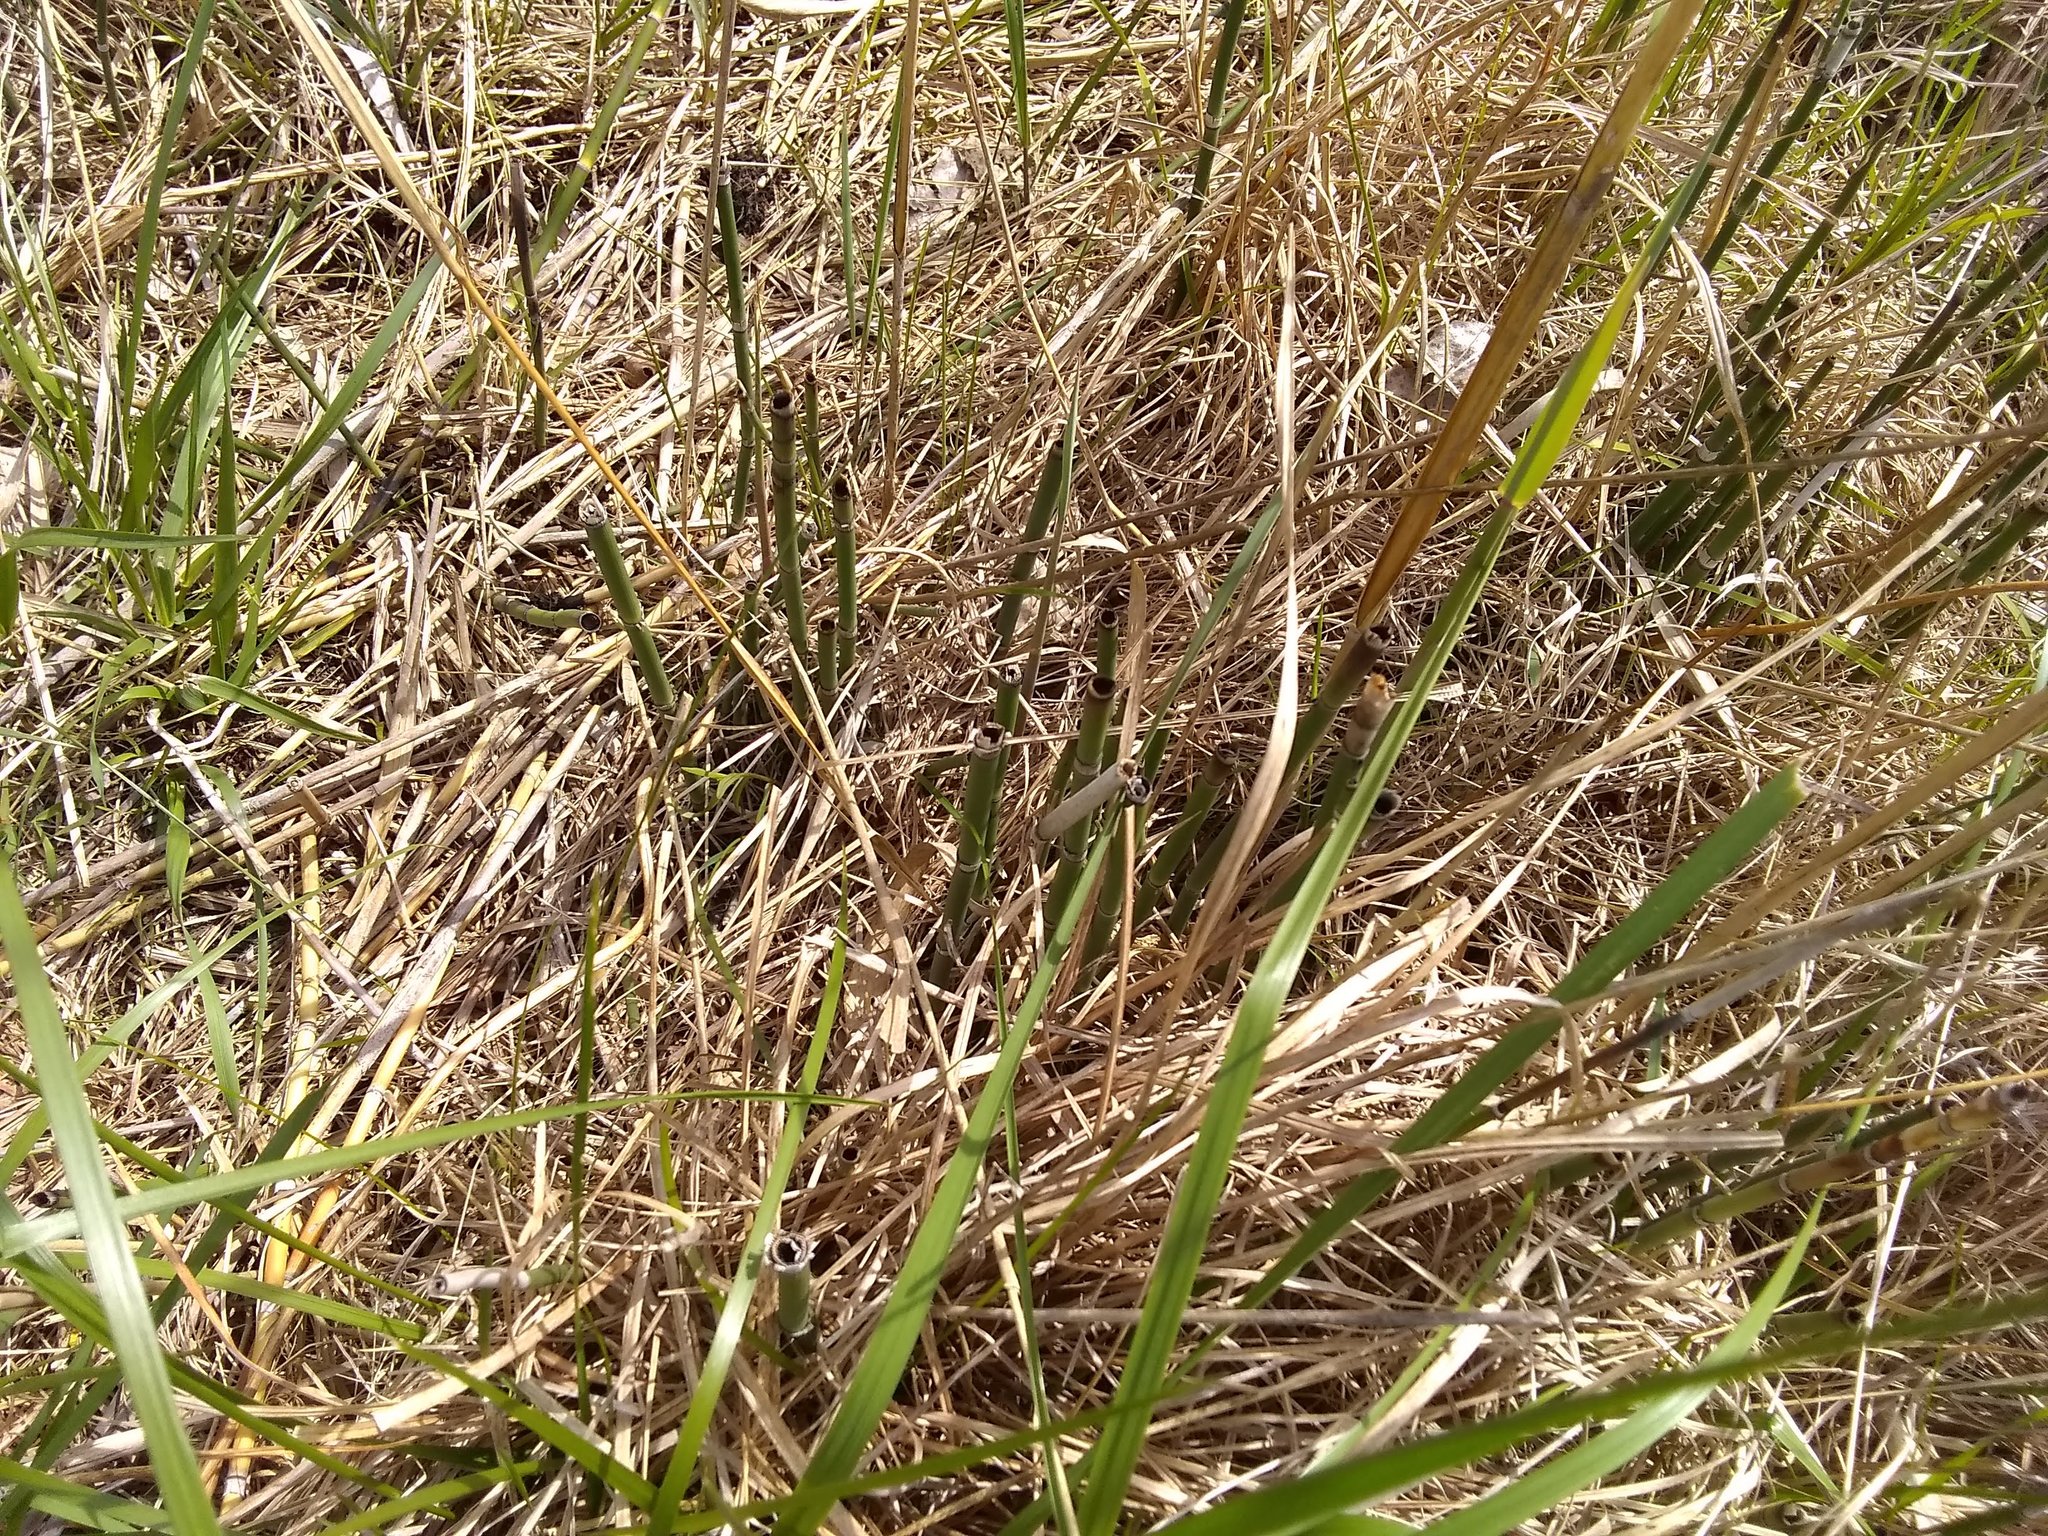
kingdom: Plantae
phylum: Tracheophyta
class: Liliopsida
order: Poales
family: Poaceae
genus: Phragmites
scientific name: Phragmites australis
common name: Common reed
